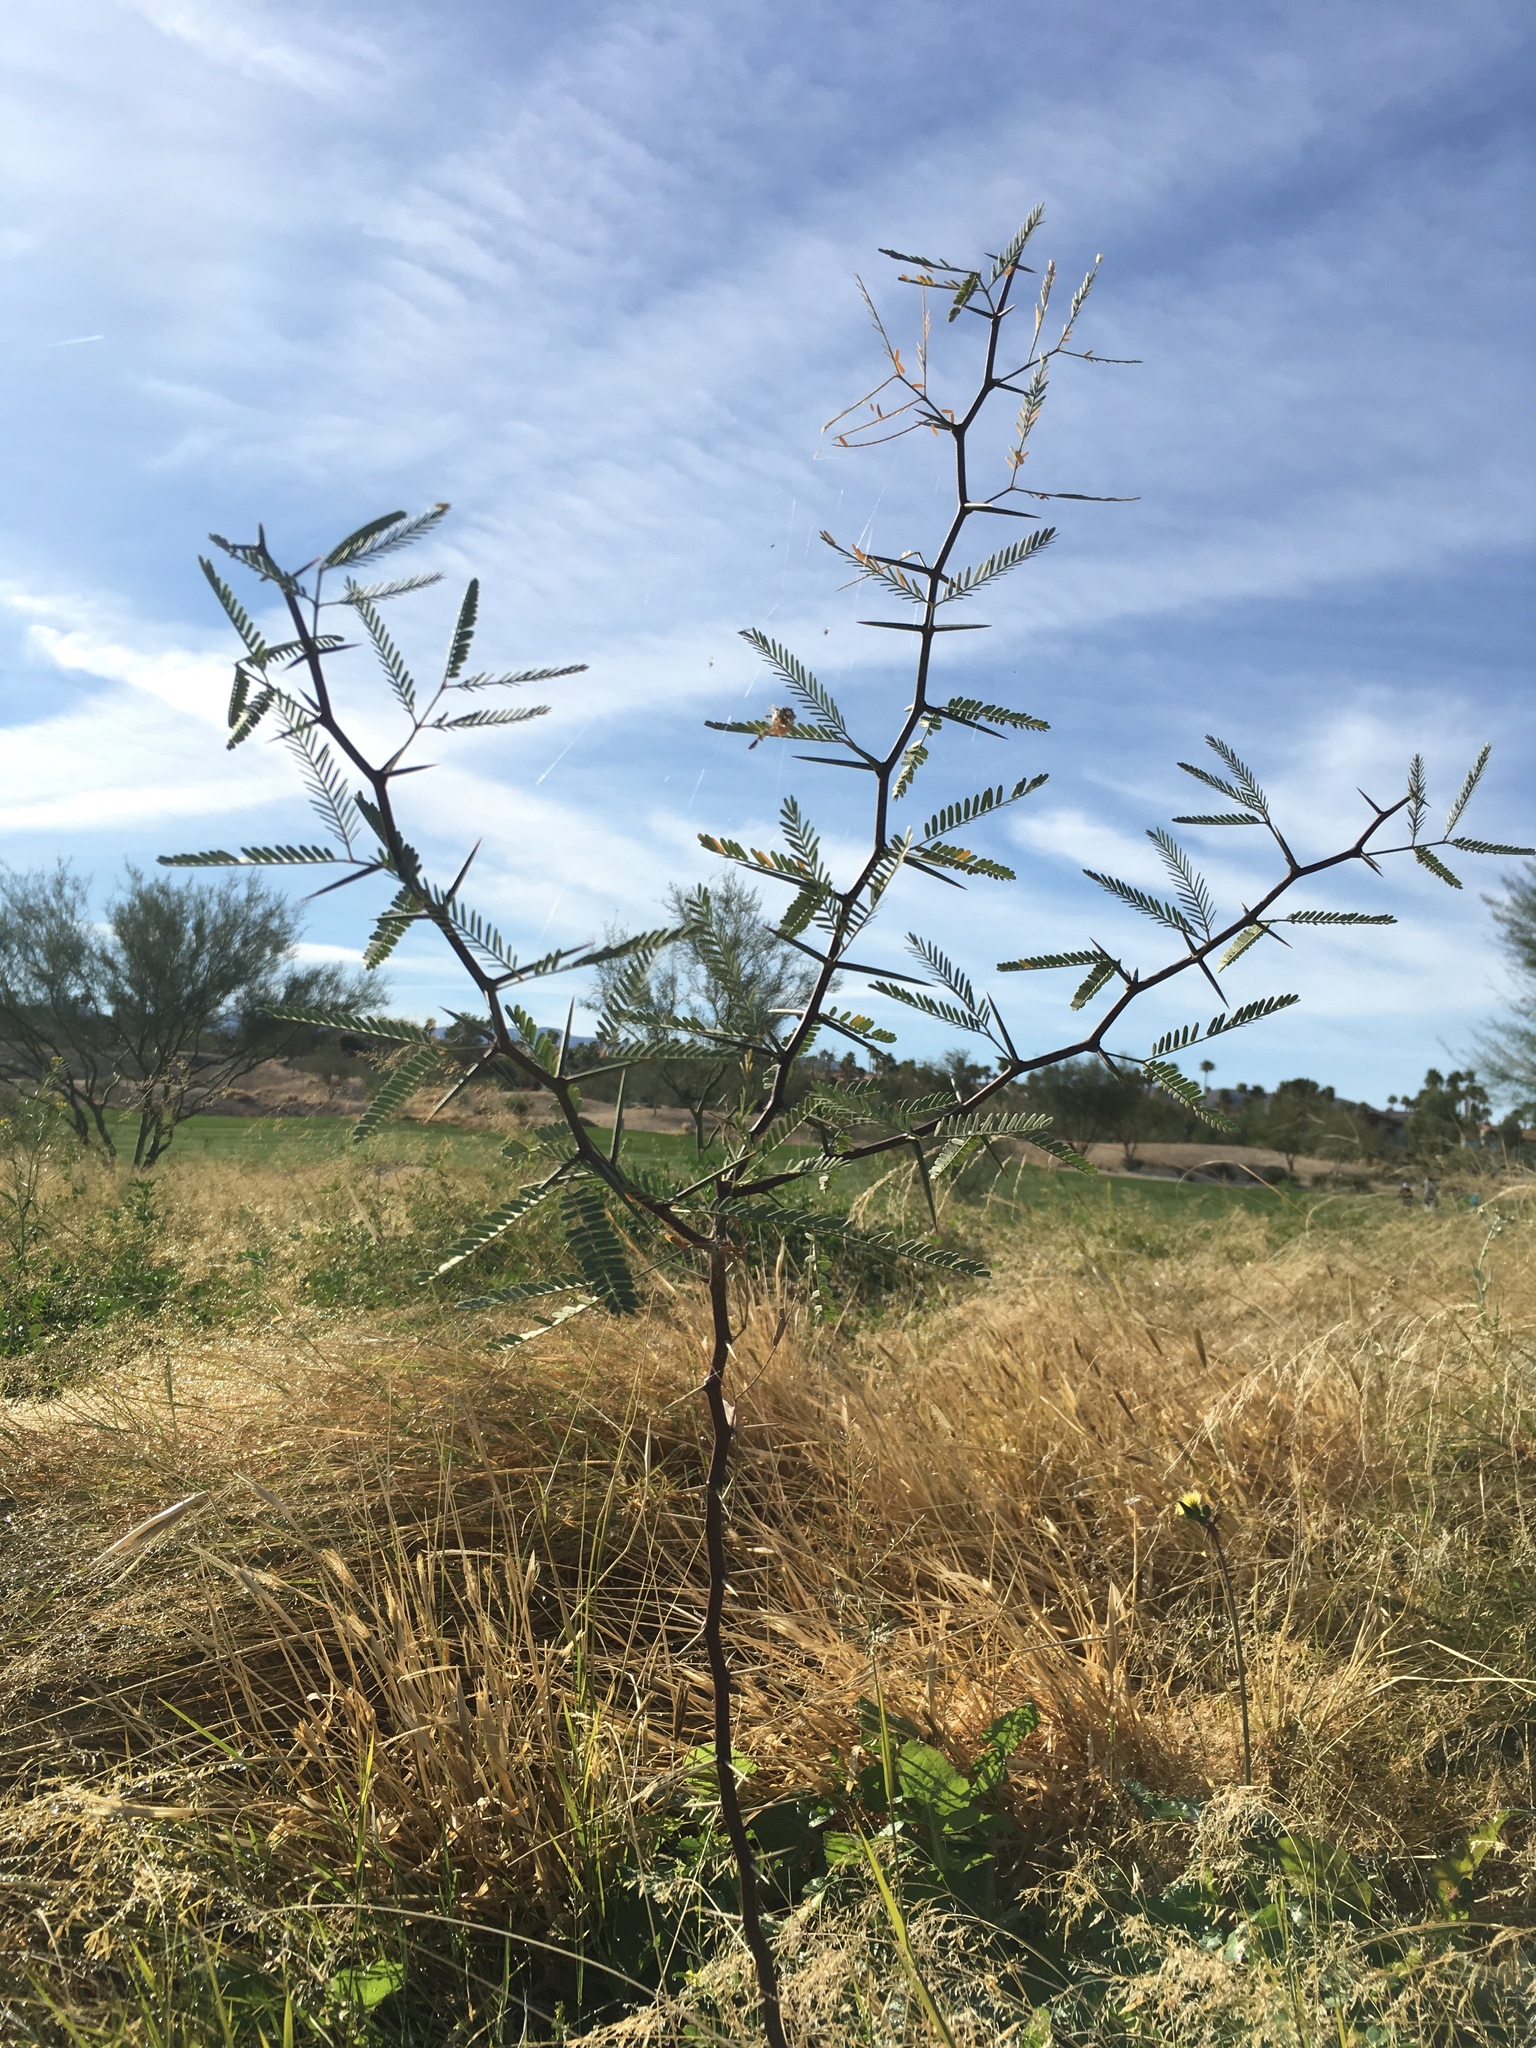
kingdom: Plantae
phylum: Tracheophyta
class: Magnoliopsida
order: Fabales
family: Fabaceae
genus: Prosopis
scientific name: Prosopis pubescens
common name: Screw-bean
